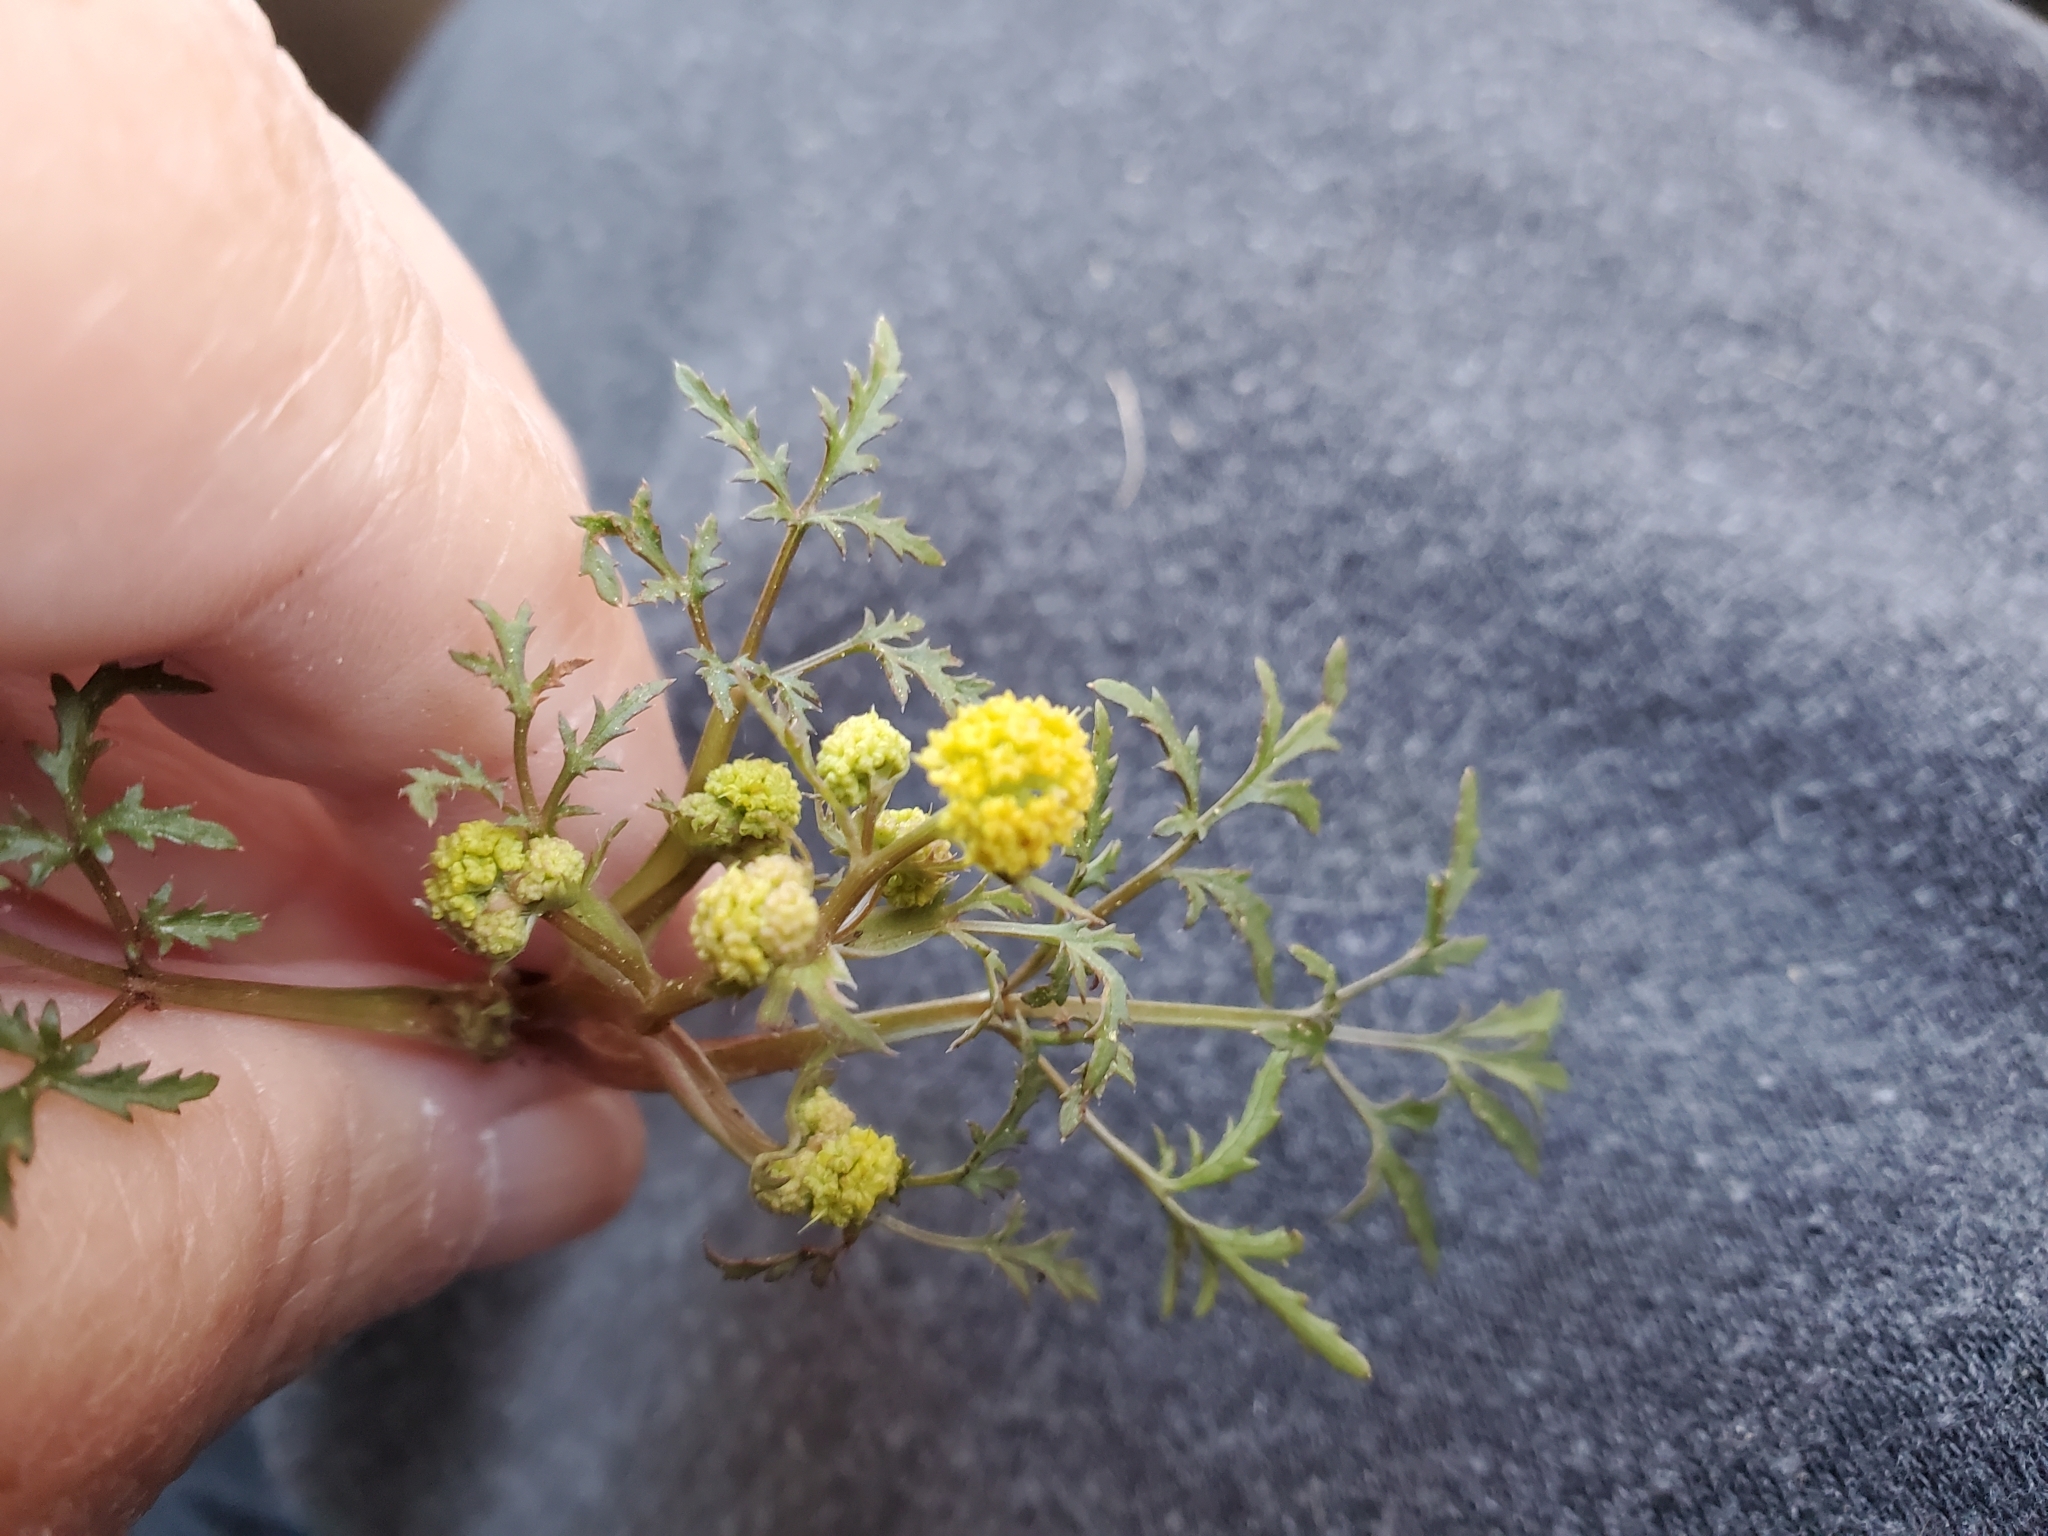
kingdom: Plantae
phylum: Tracheophyta
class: Magnoliopsida
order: Apiales
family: Apiaceae
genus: Sanicula
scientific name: Sanicula tuberosa
